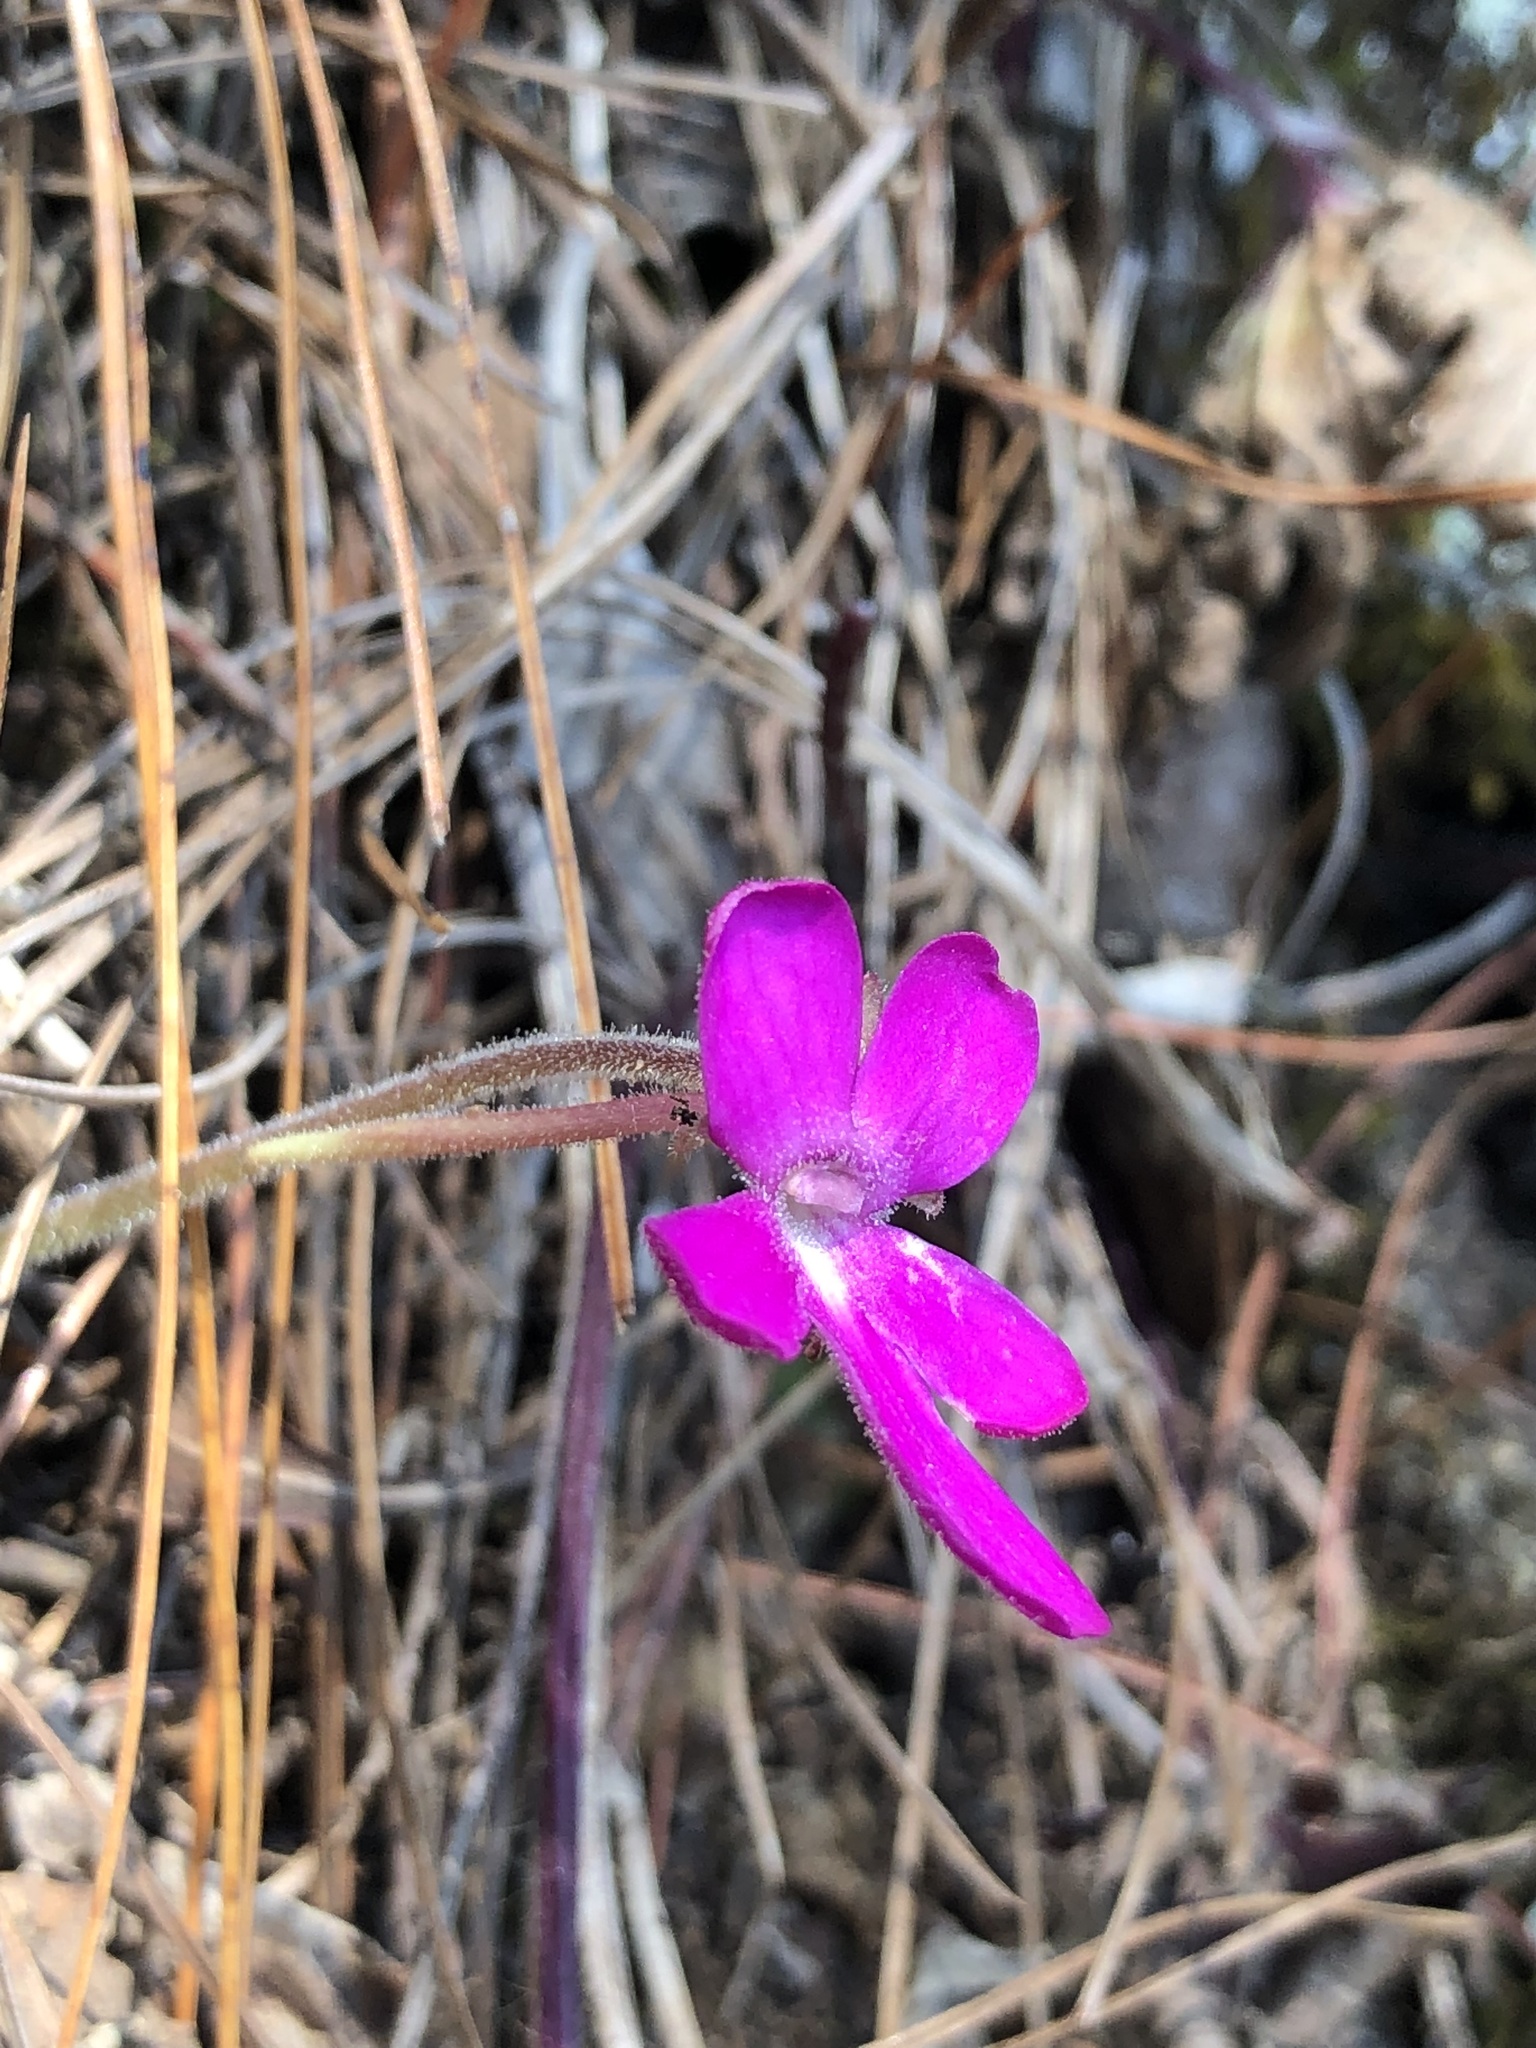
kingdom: Plantae
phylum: Tracheophyta
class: Magnoliopsida
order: Lamiales
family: Lentibulariaceae
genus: Pinguicula
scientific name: Pinguicula moranensis
